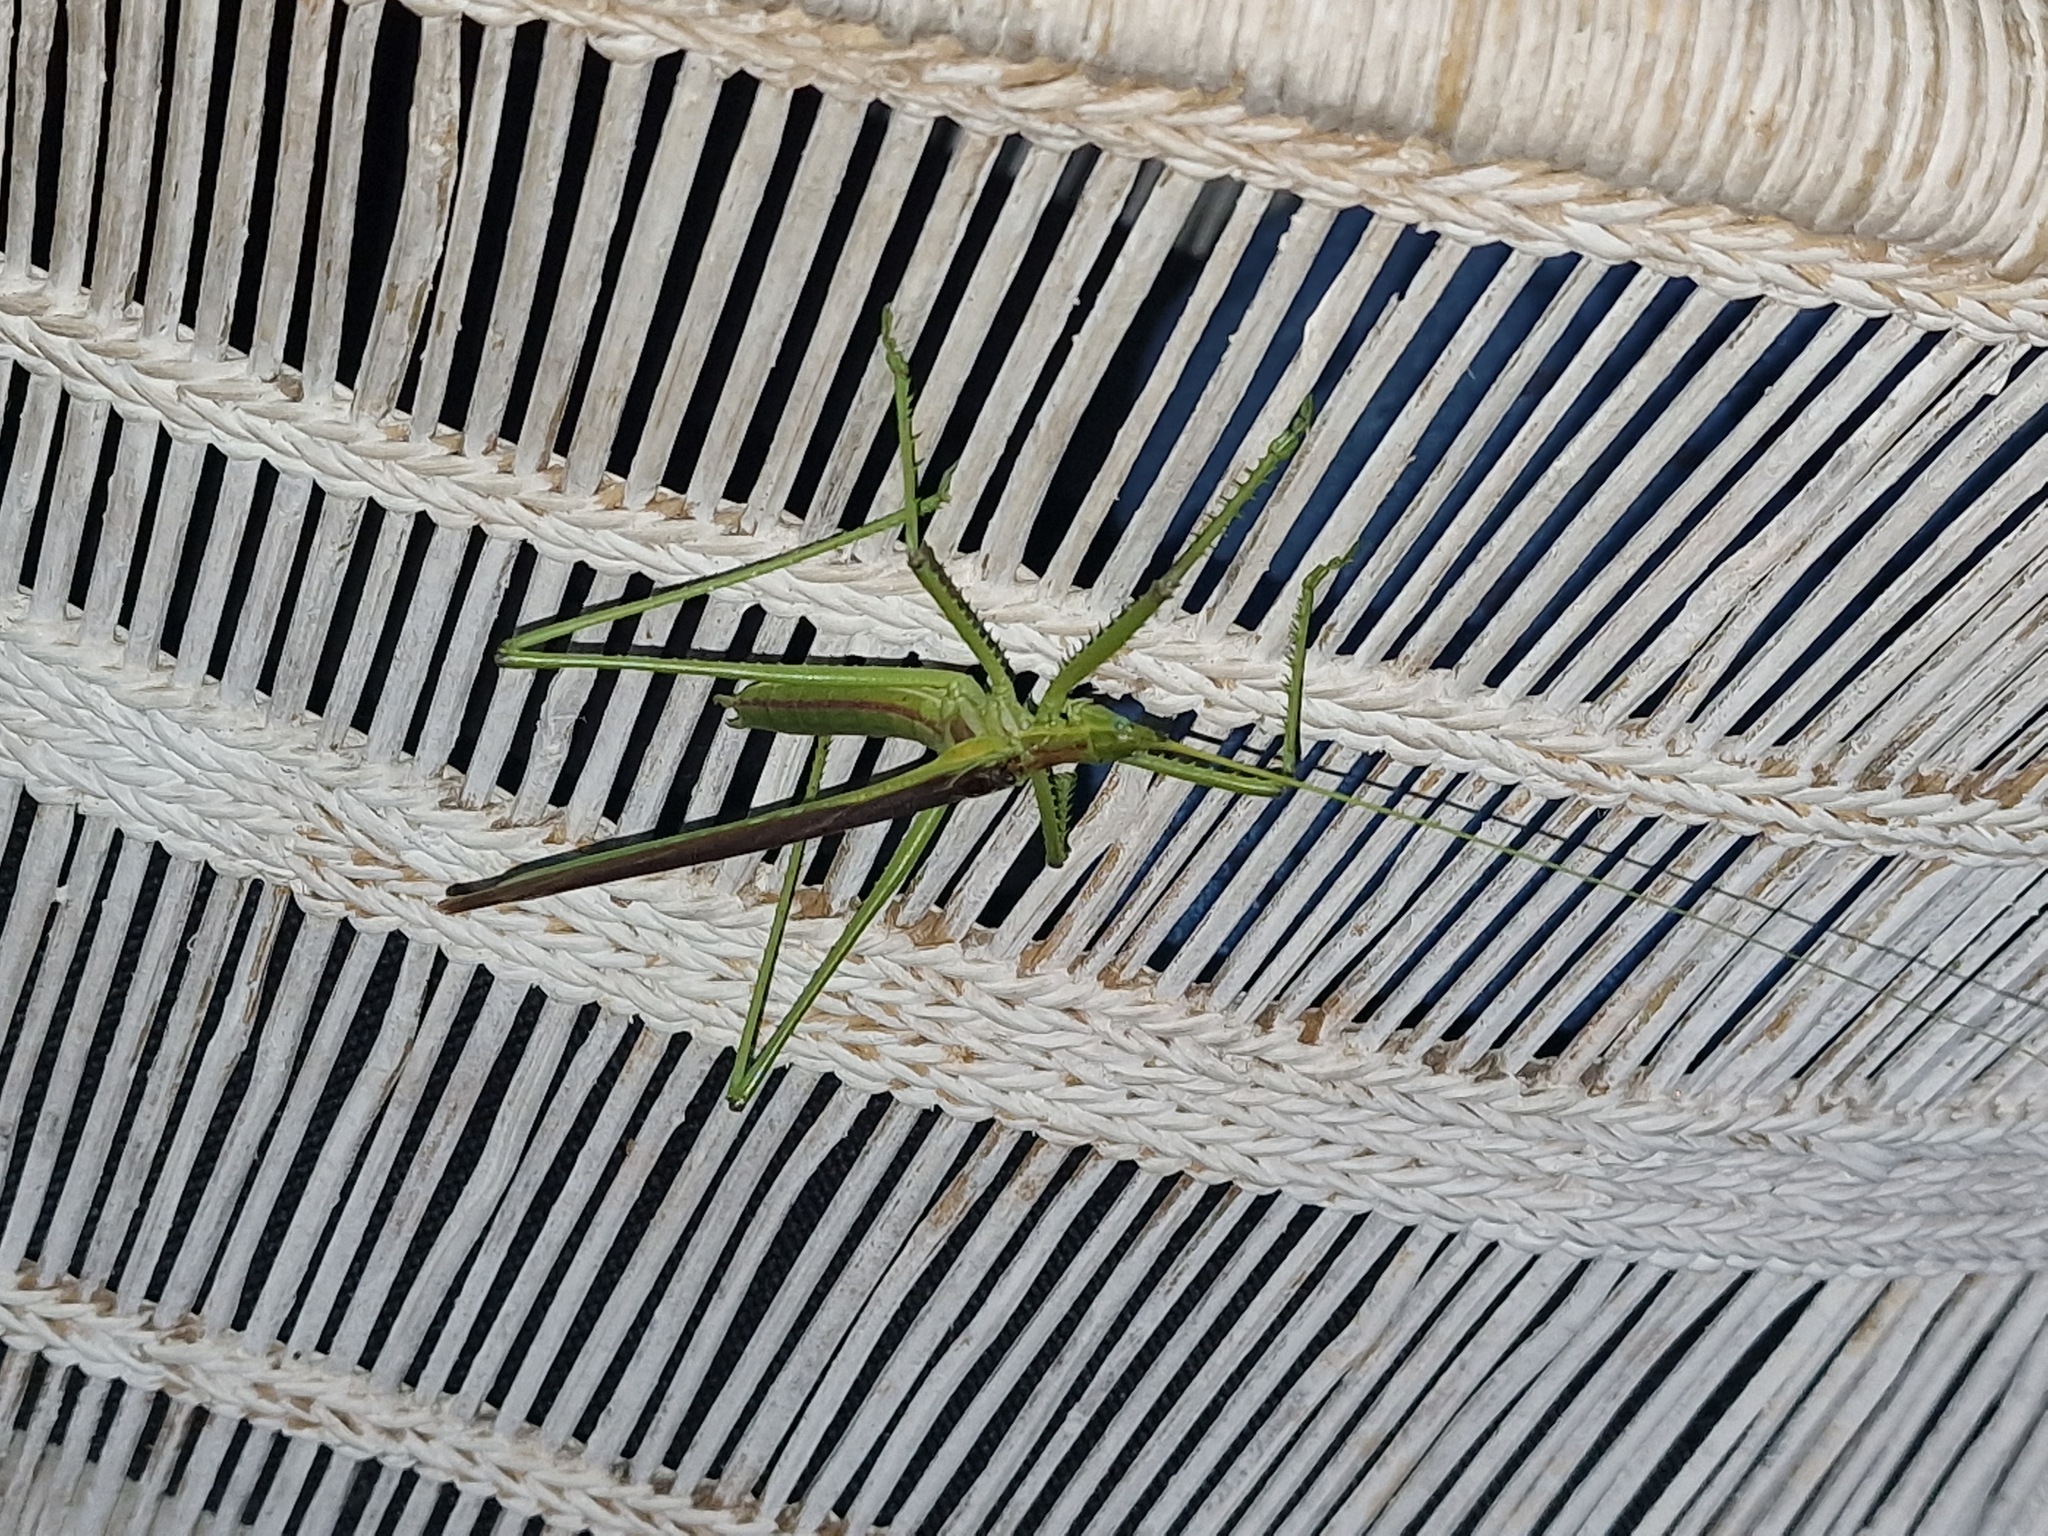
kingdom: Animalia
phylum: Arthropoda
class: Insecta
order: Orthoptera
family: Tettigoniidae
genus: Clonia
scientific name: Clonia multispina
